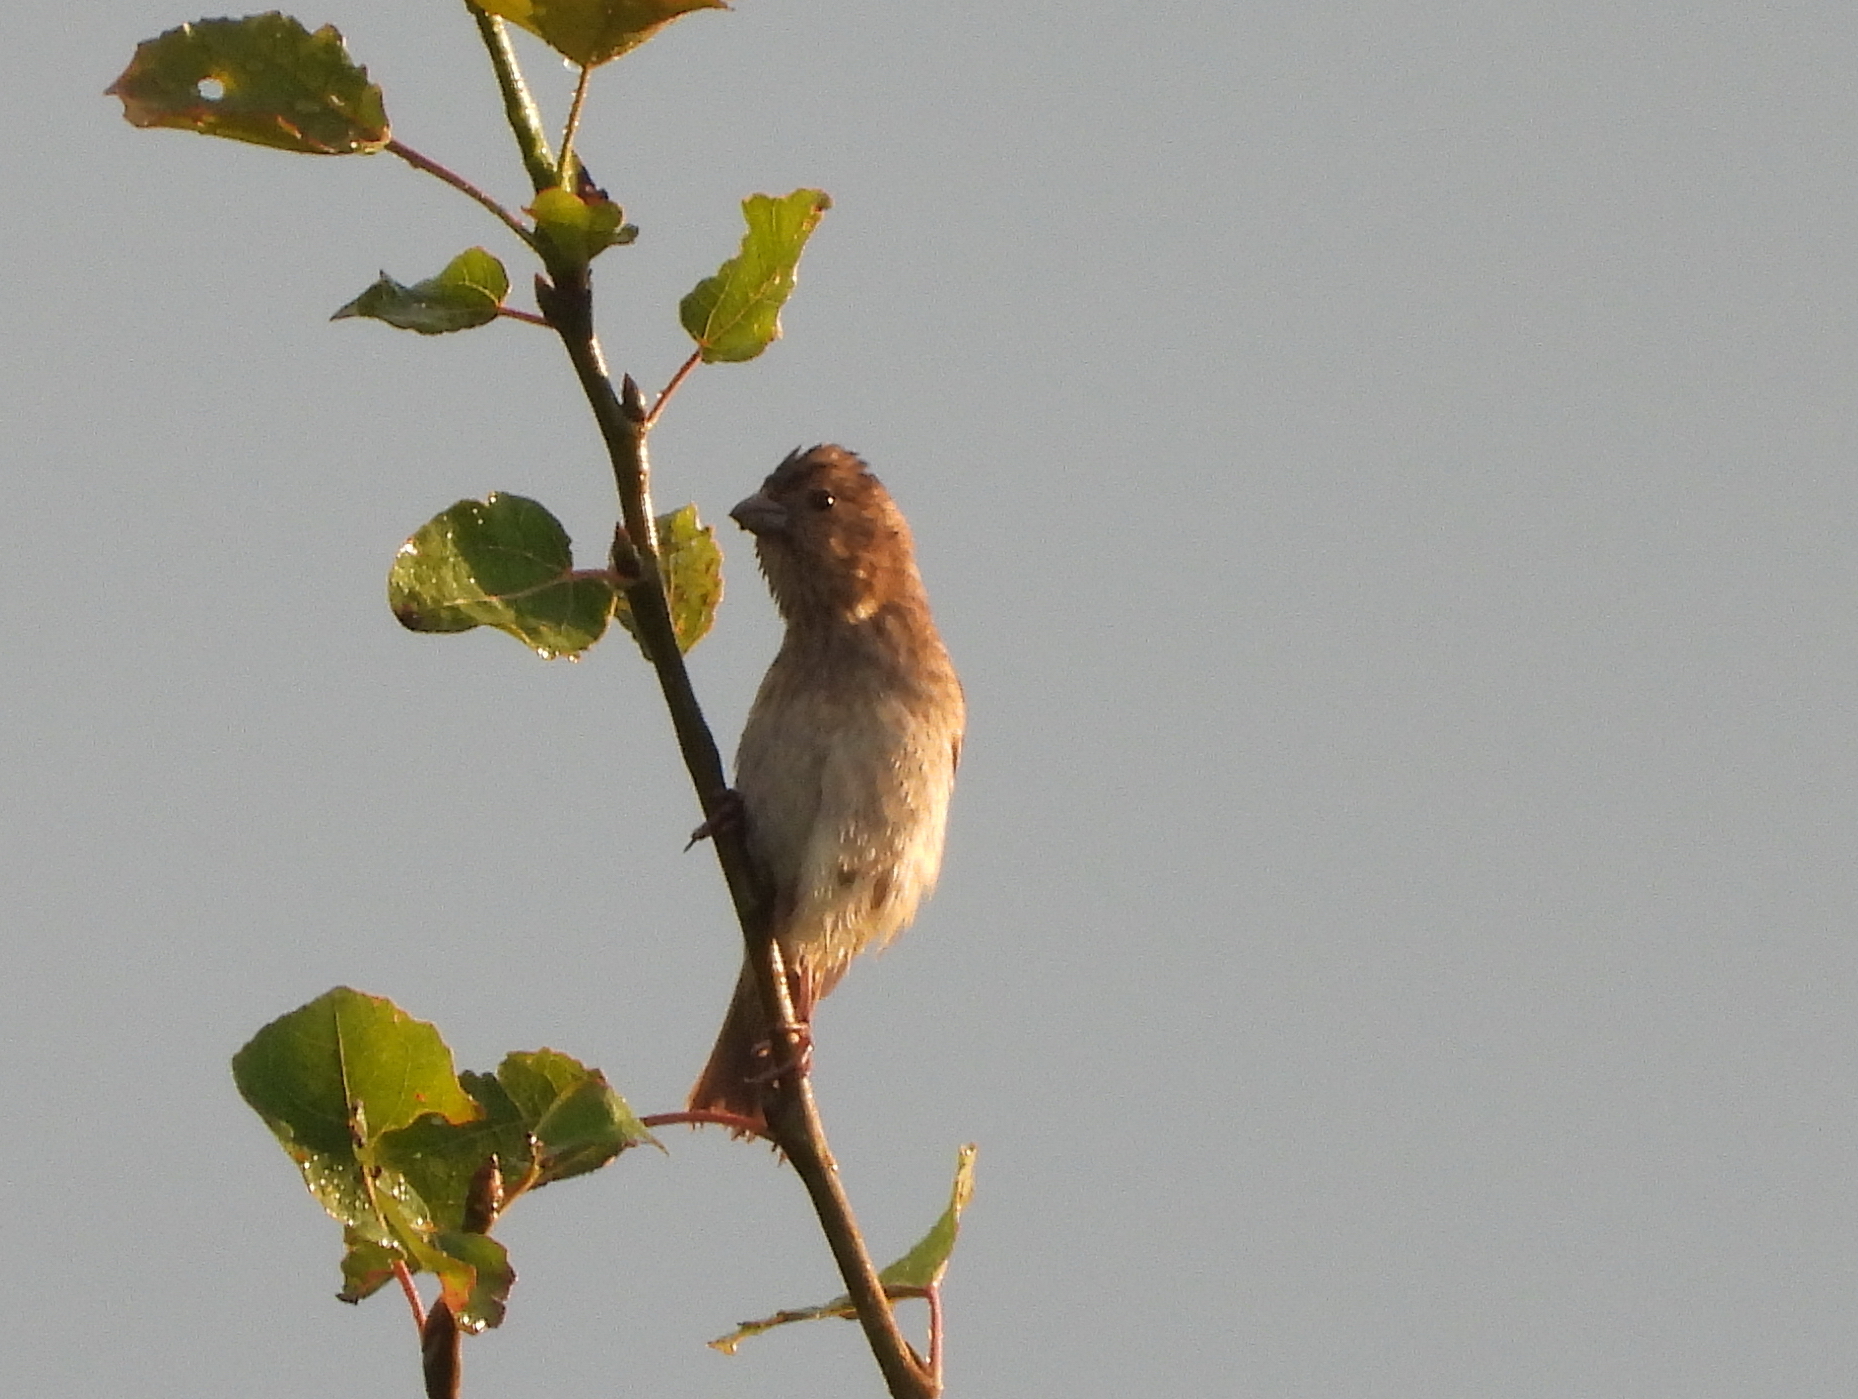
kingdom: Animalia
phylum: Chordata
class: Aves
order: Passeriformes
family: Fringillidae
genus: Carpodacus
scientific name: Carpodacus erythrinus
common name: Common rosefinch
